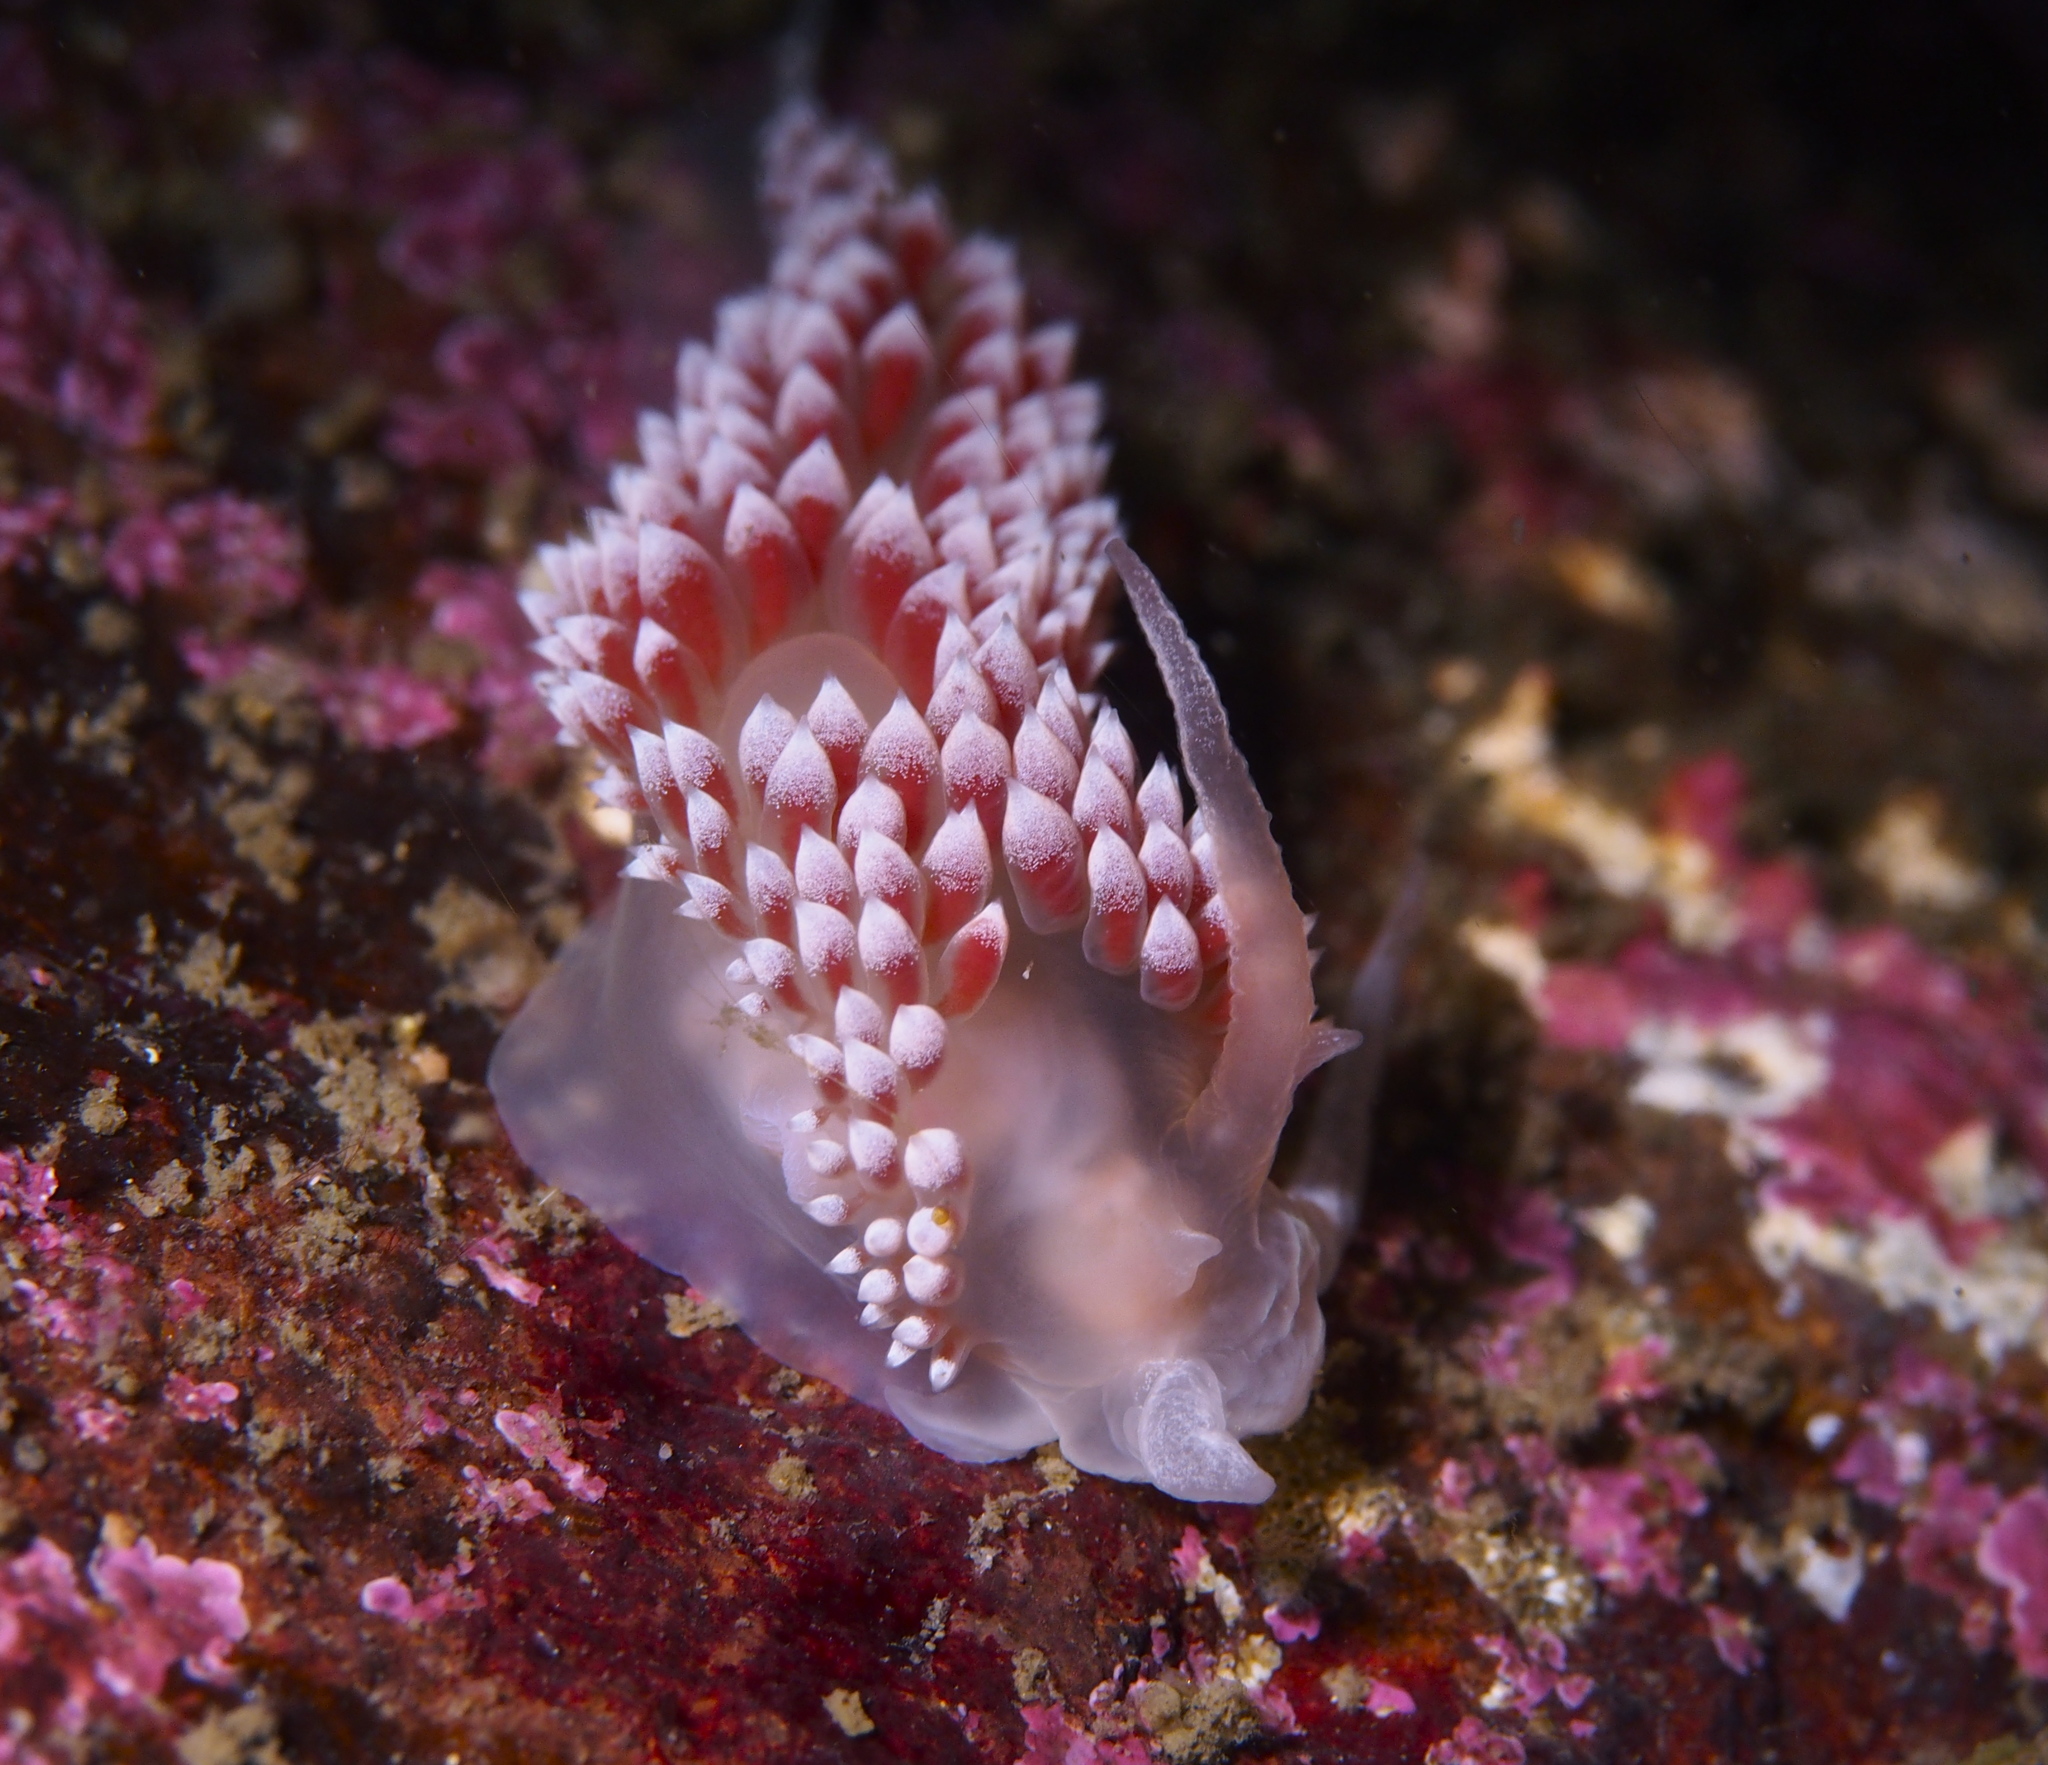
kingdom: Animalia
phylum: Mollusca
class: Gastropoda
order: Nudibranchia
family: Coryphellidae
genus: Coryphella
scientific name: Coryphella verrucosa
